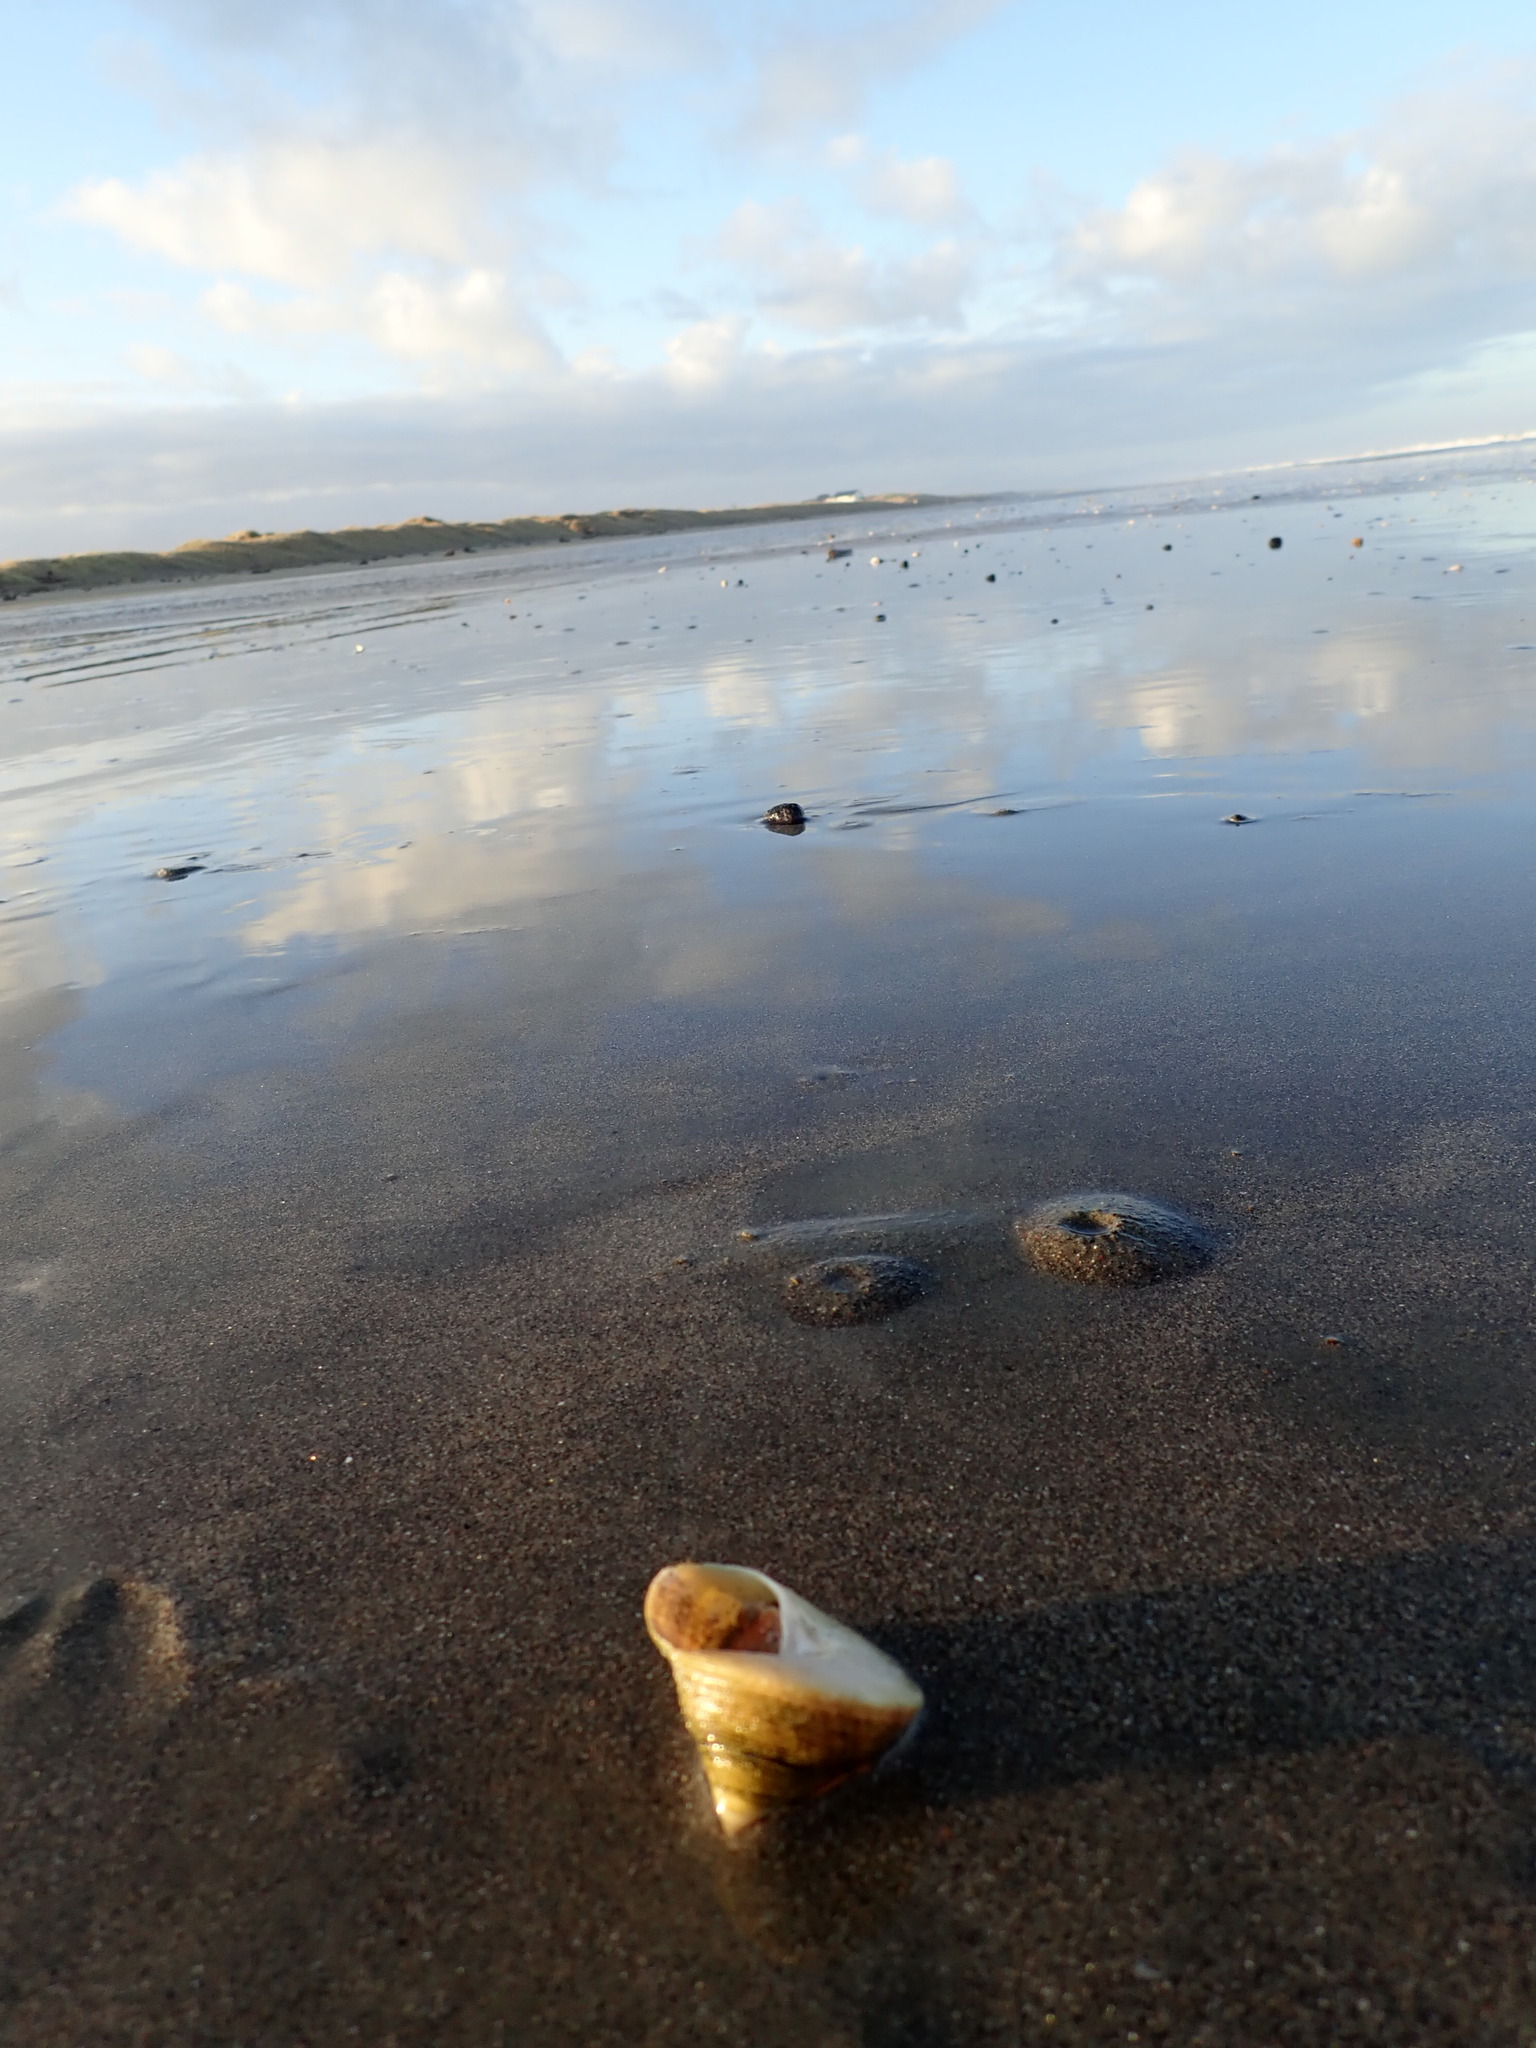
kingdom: Animalia
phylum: Mollusca
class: Gastropoda
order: Trochida
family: Calliostomatidae
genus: Maurea
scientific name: Maurea selecta
